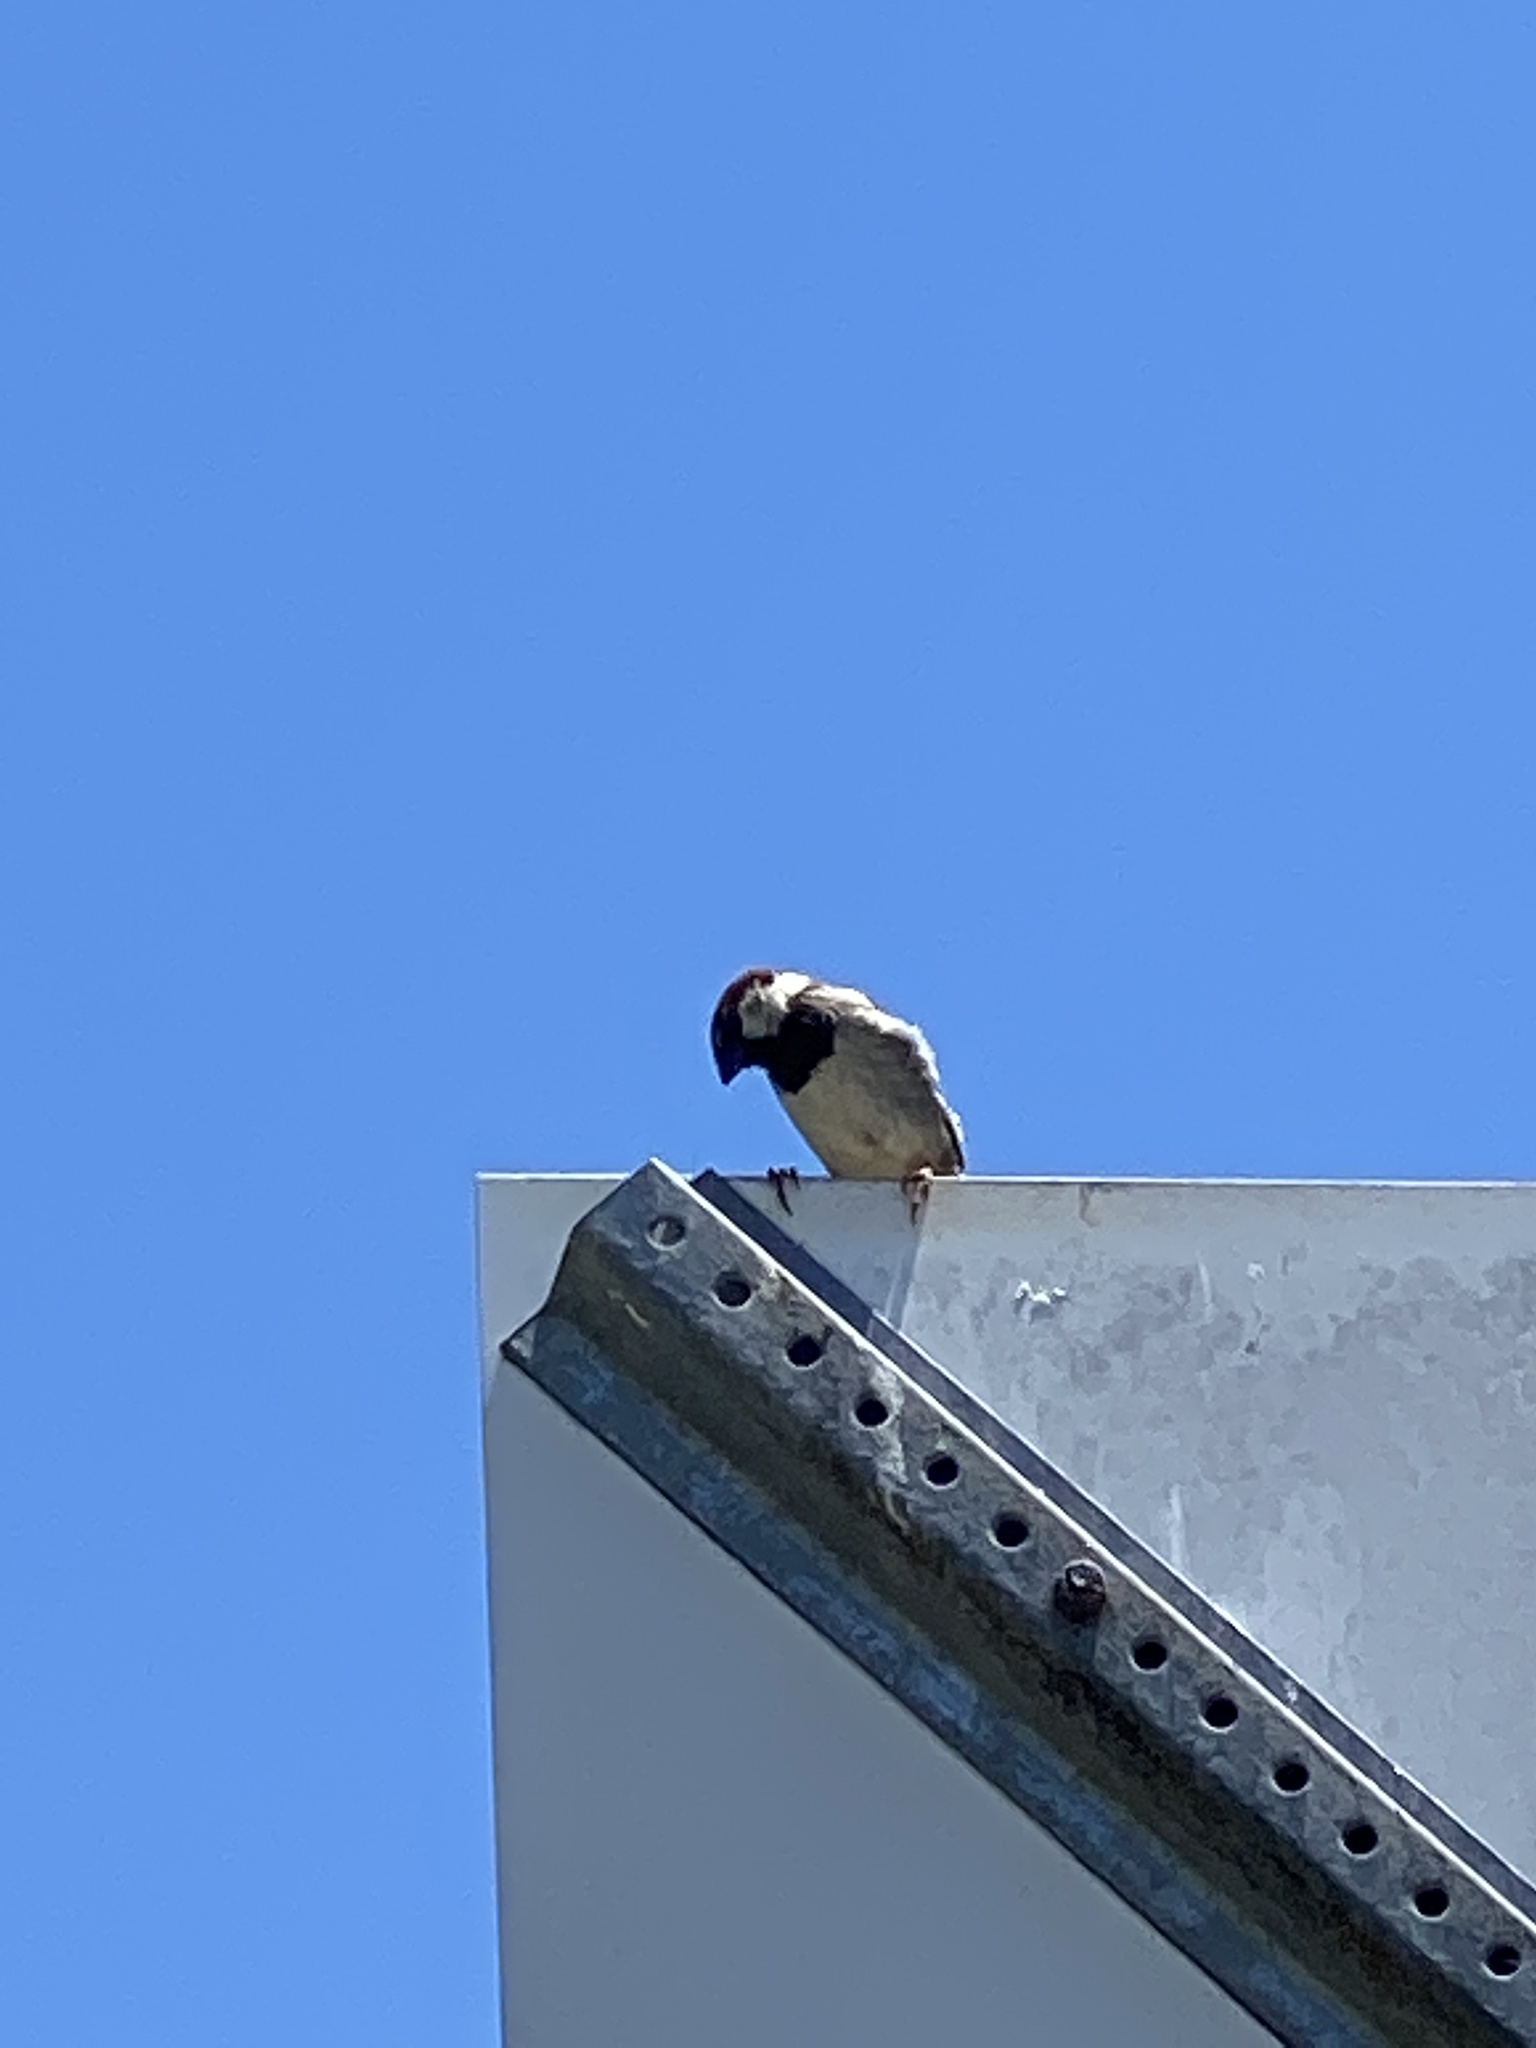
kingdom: Animalia
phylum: Chordata
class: Aves
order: Passeriformes
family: Passeridae
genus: Passer
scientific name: Passer domesticus
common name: House sparrow
